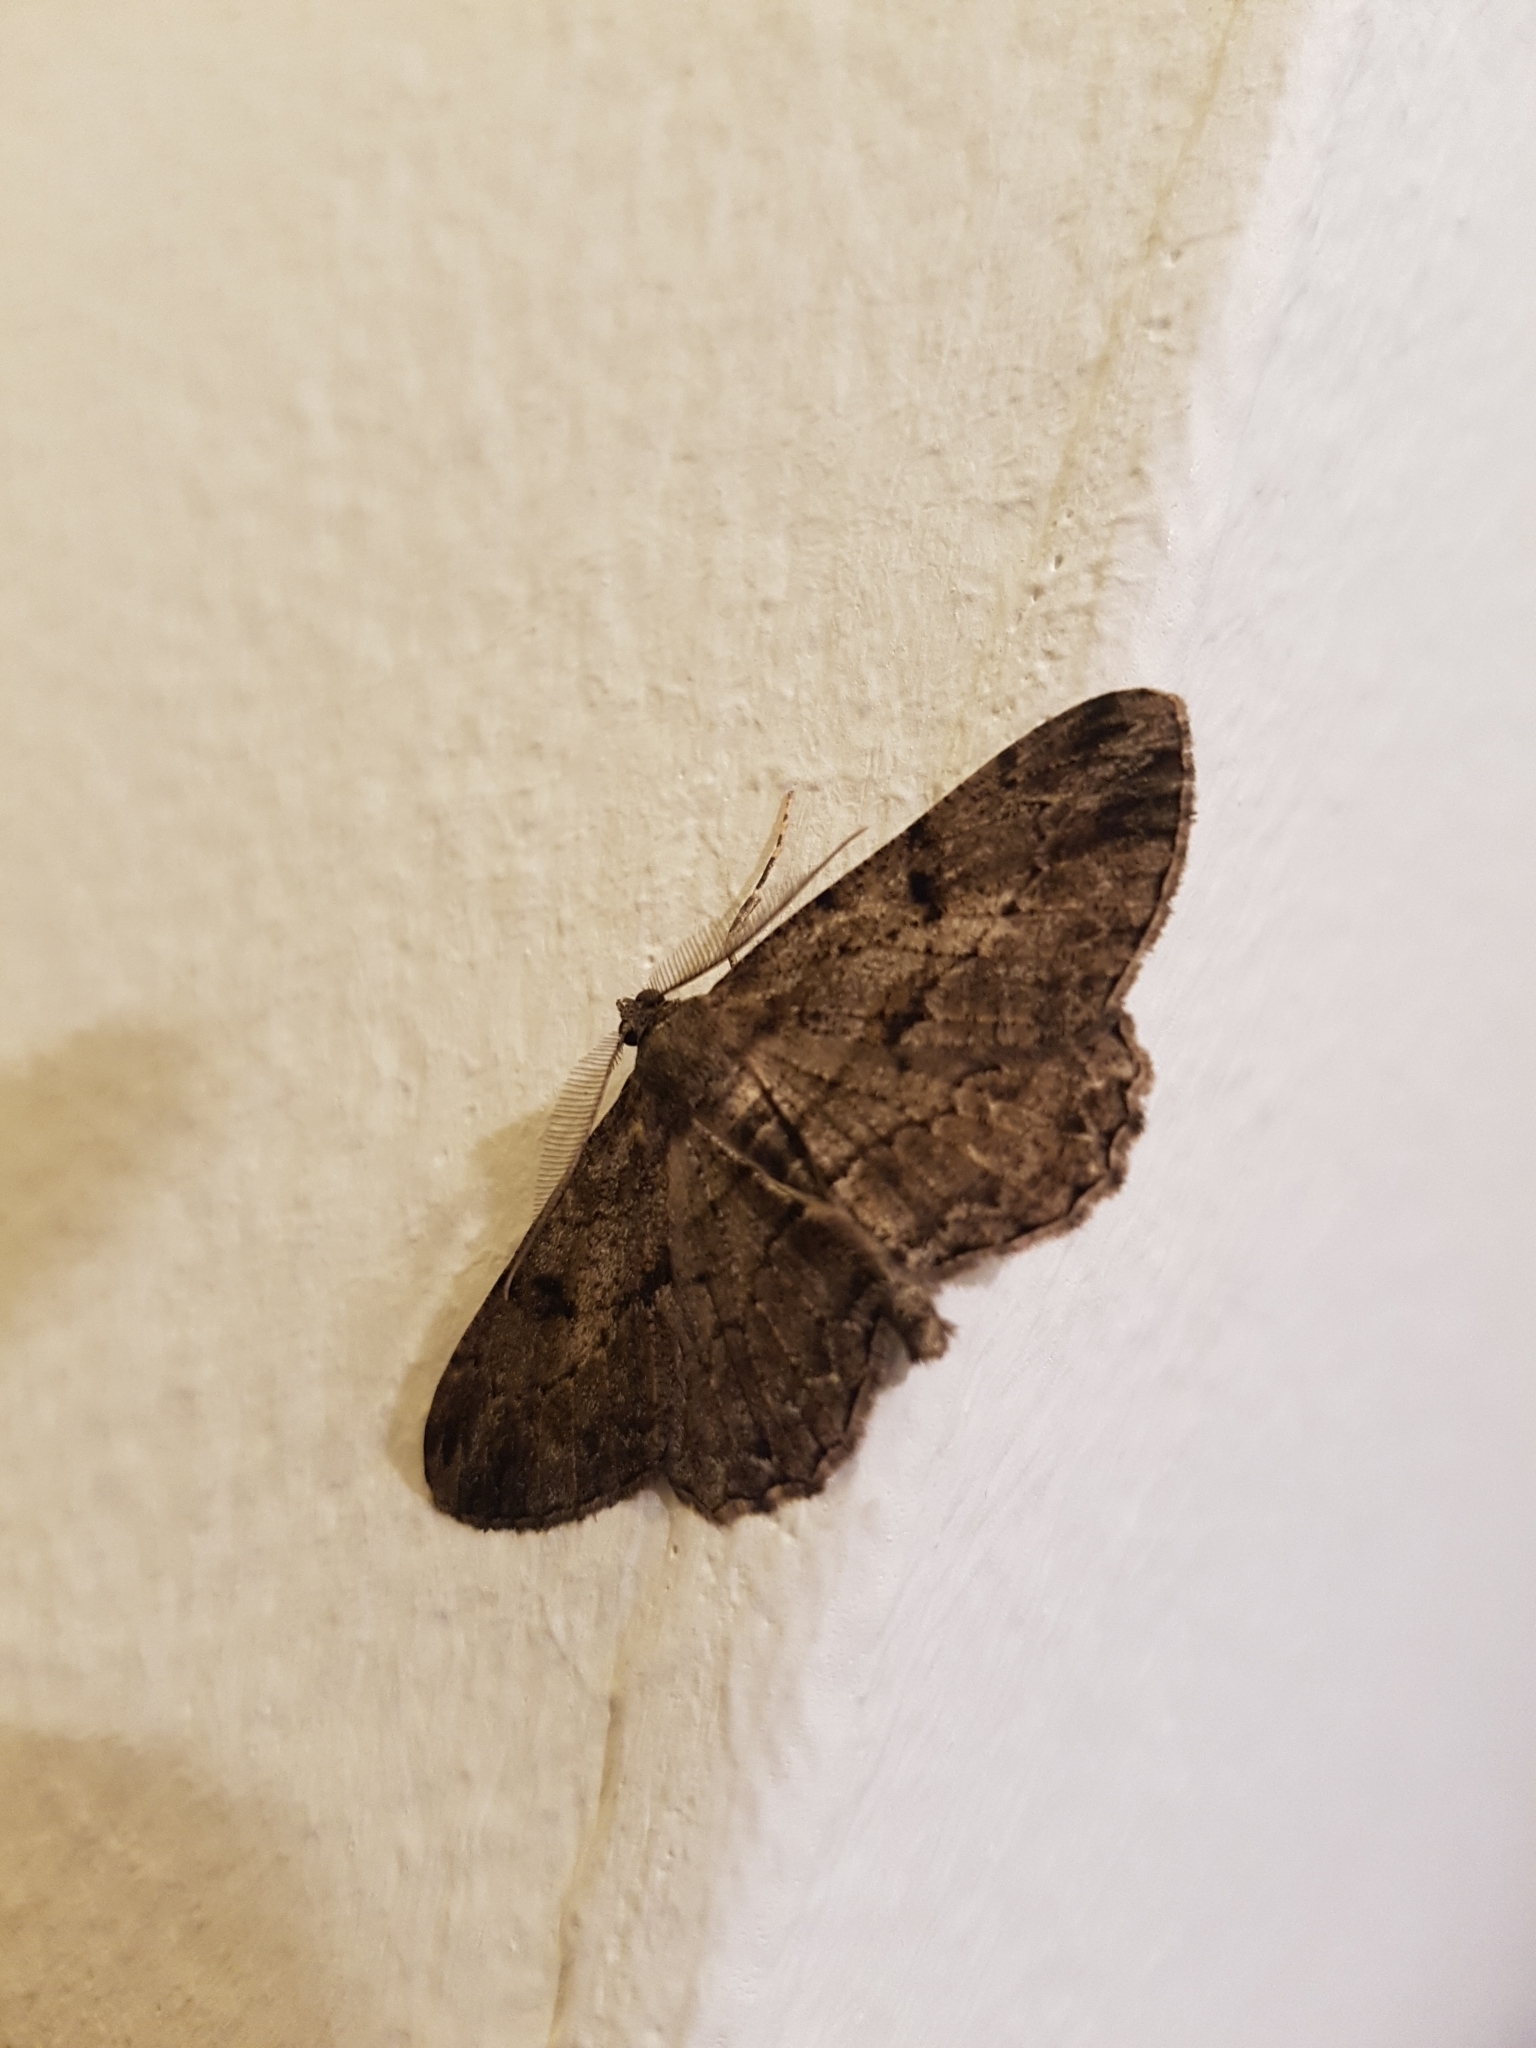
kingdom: Animalia
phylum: Arthropoda
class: Insecta
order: Lepidoptera
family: Geometridae
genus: Peribatodes
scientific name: Peribatodes rhomboidaria
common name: Willow beauty
